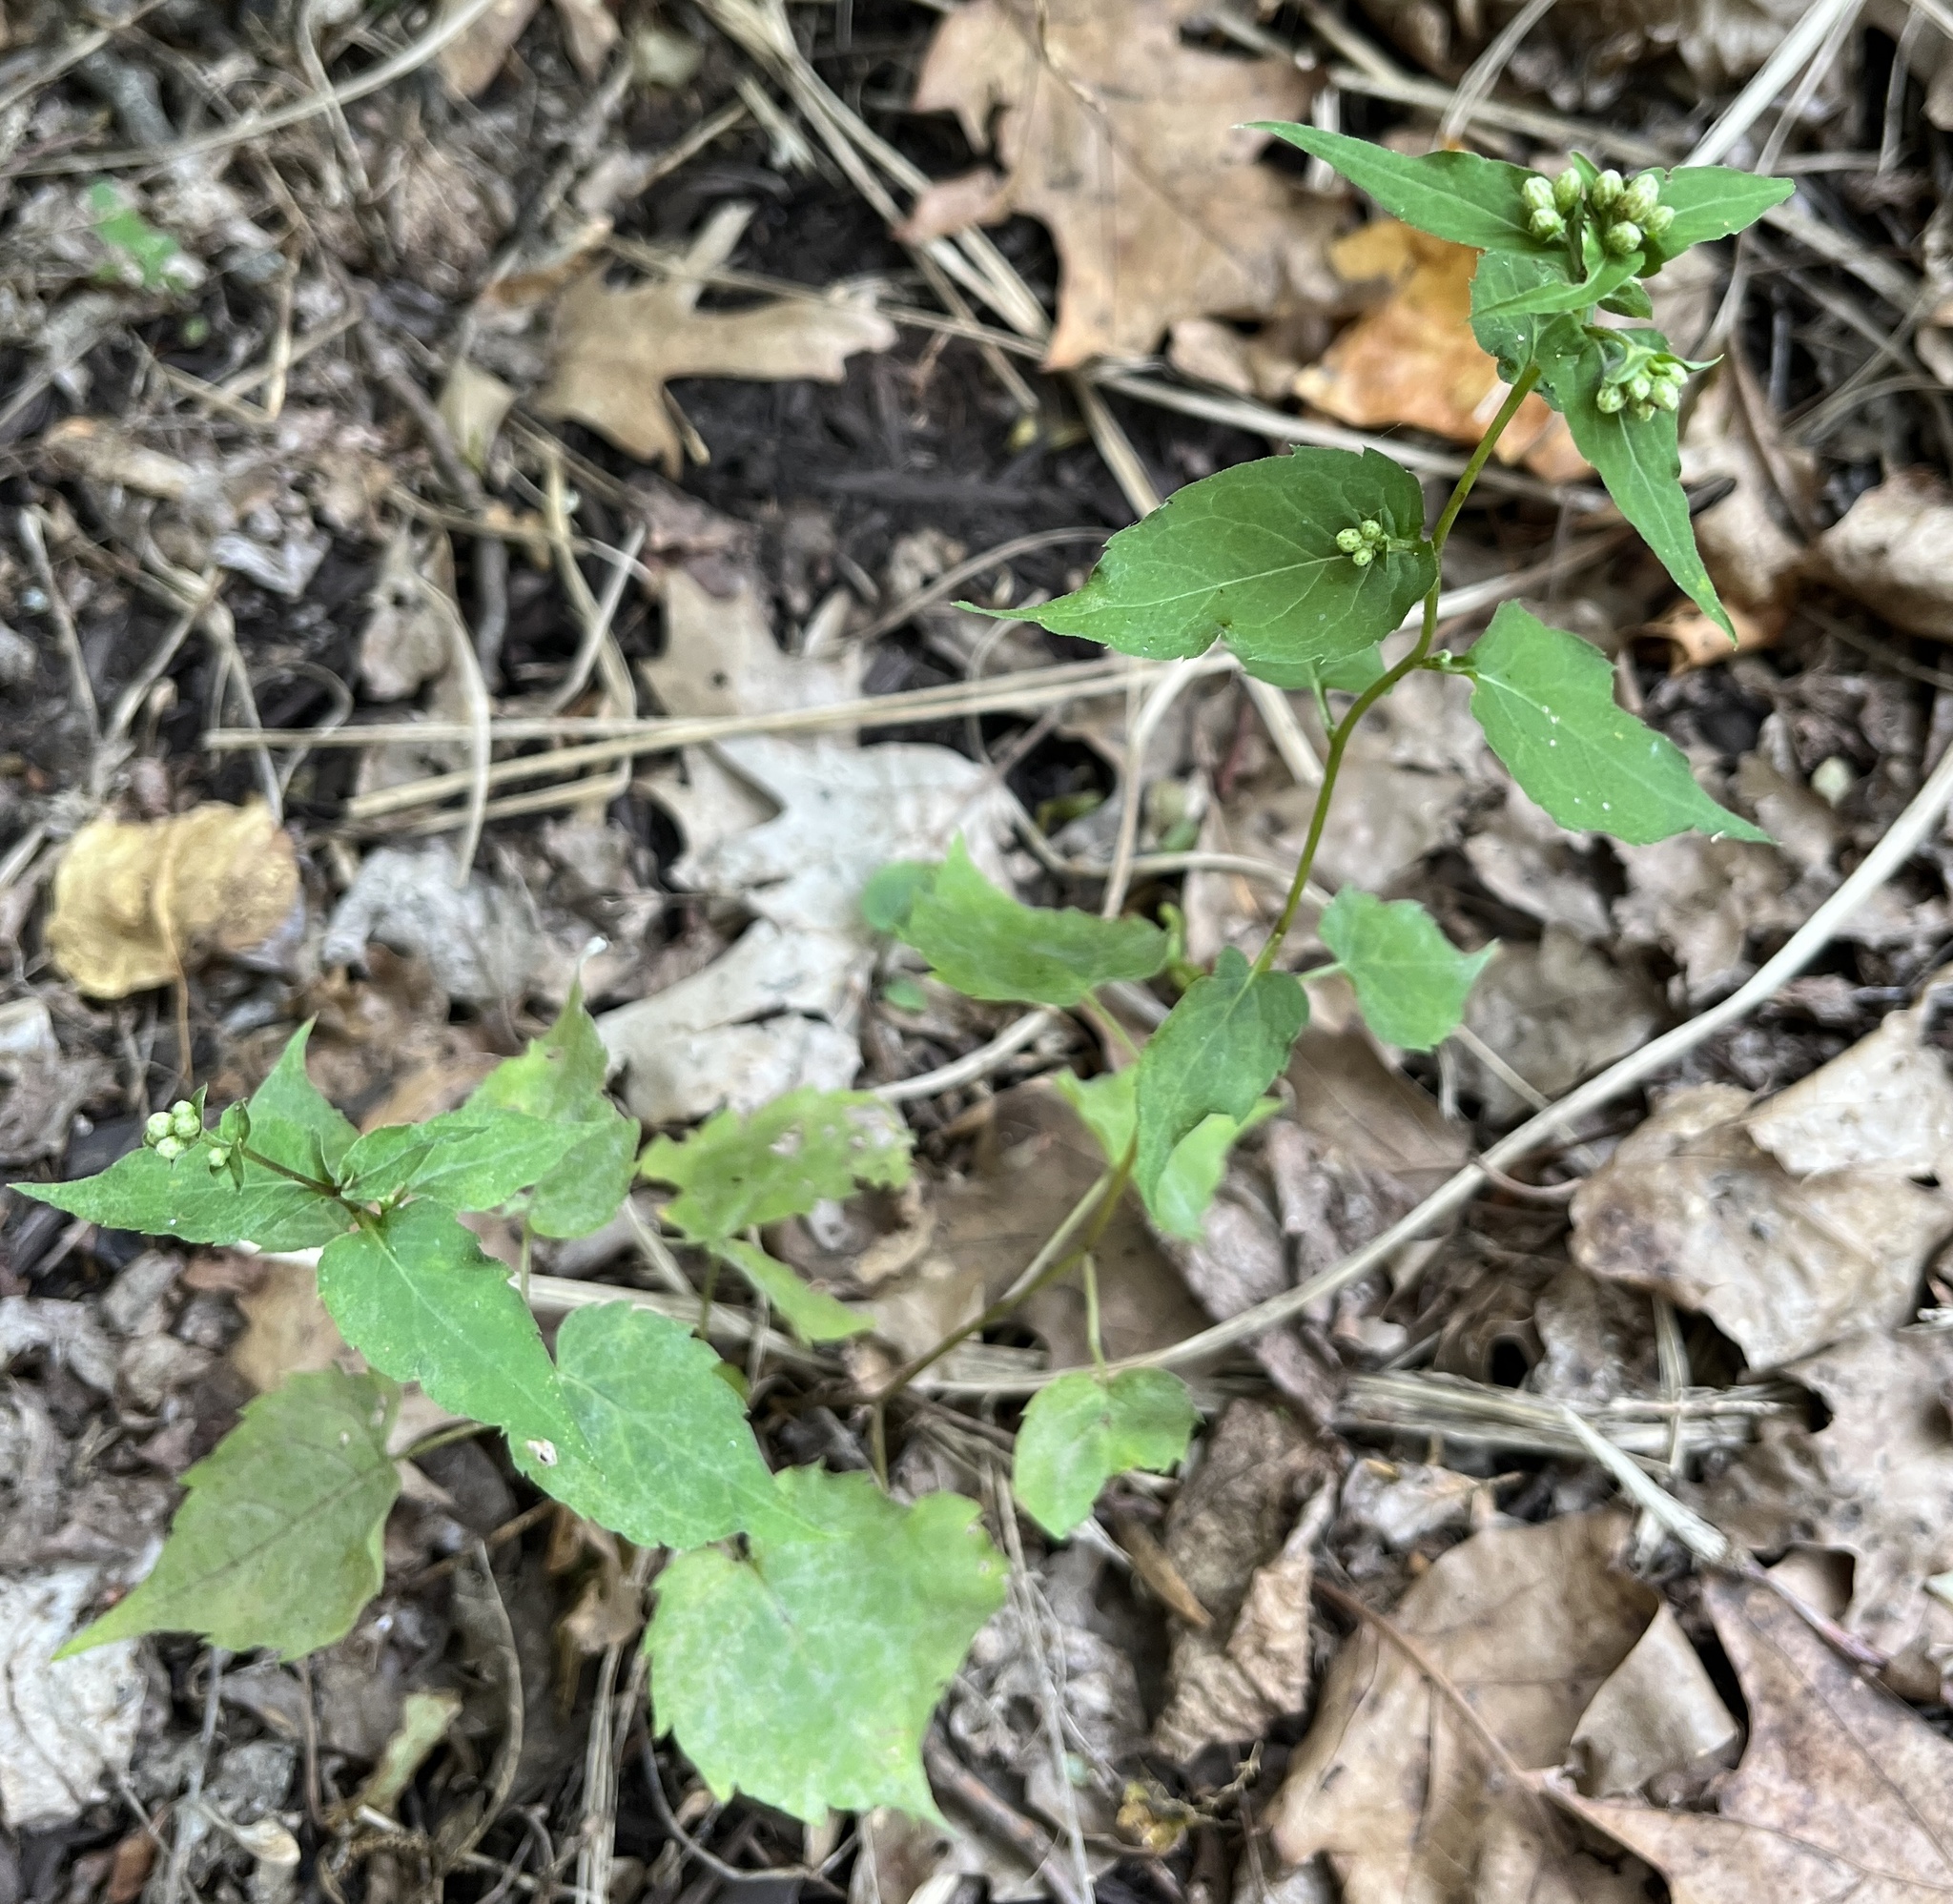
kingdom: Plantae
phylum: Tracheophyta
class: Magnoliopsida
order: Asterales
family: Asteraceae
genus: Eurybia
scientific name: Eurybia divaricata
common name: White wood aster
